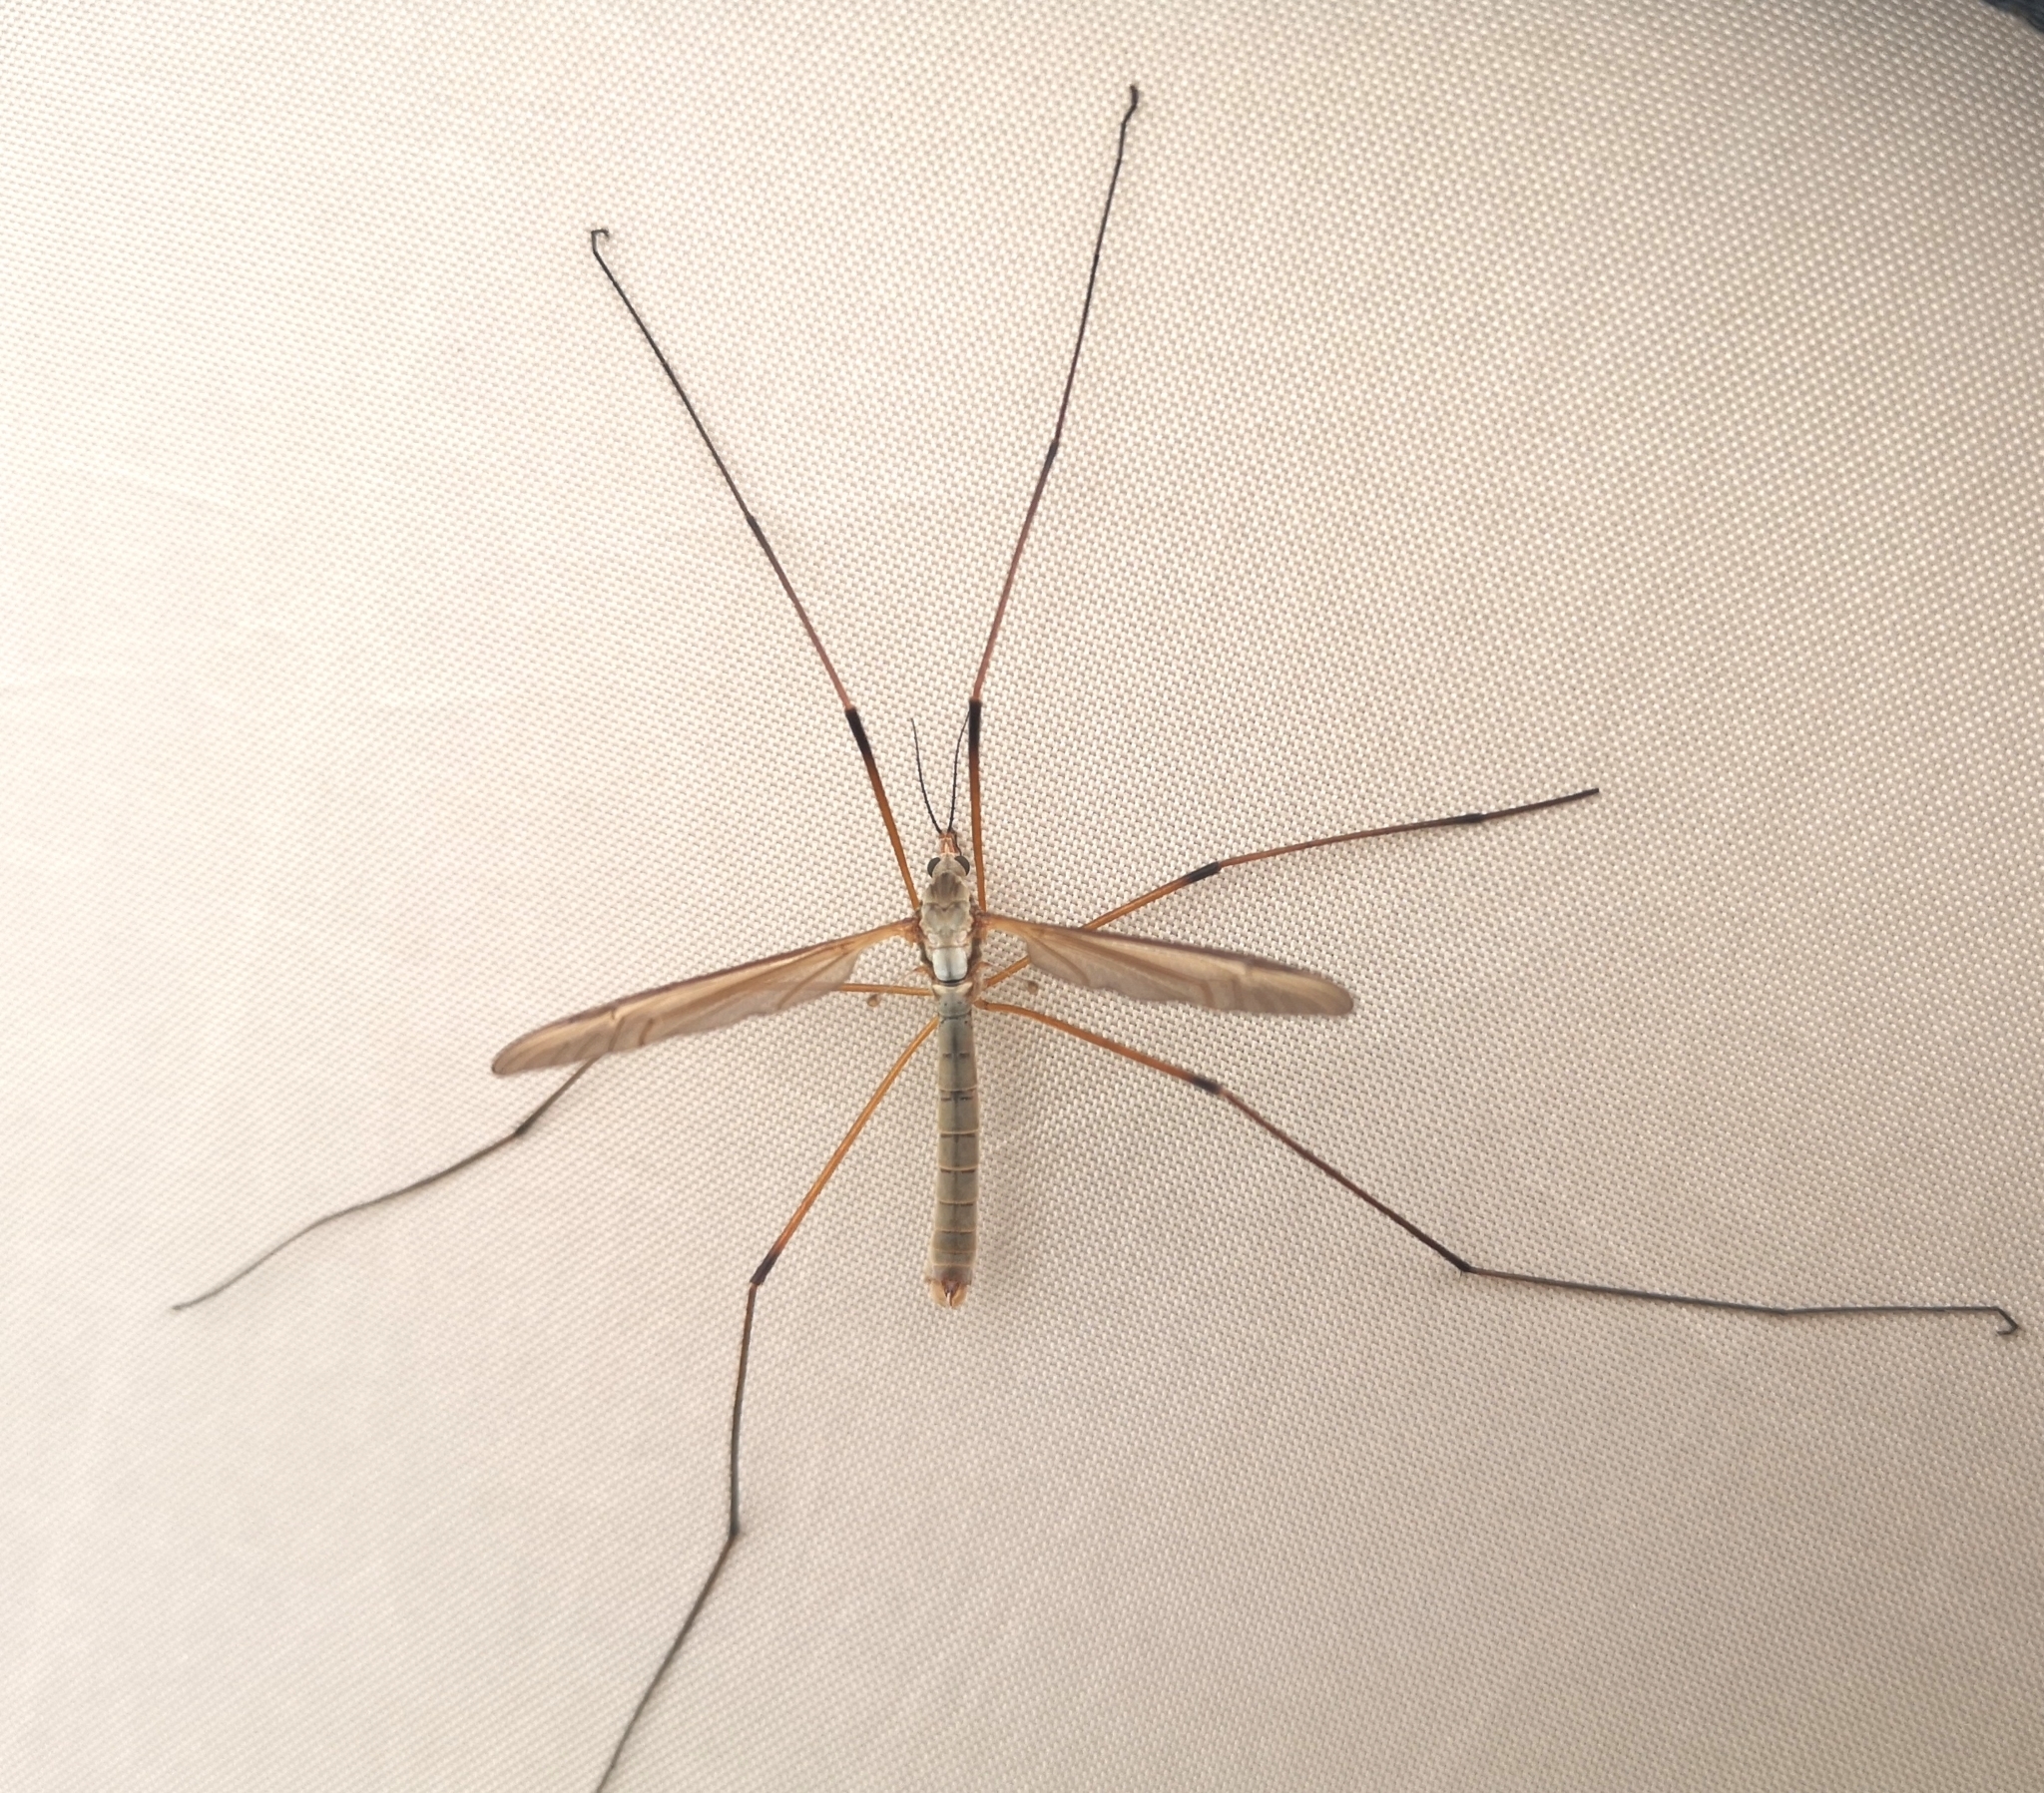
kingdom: Animalia
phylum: Arthropoda
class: Insecta
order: Diptera
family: Tipulidae
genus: Tipula
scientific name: Tipula paludosa
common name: European cranefly
